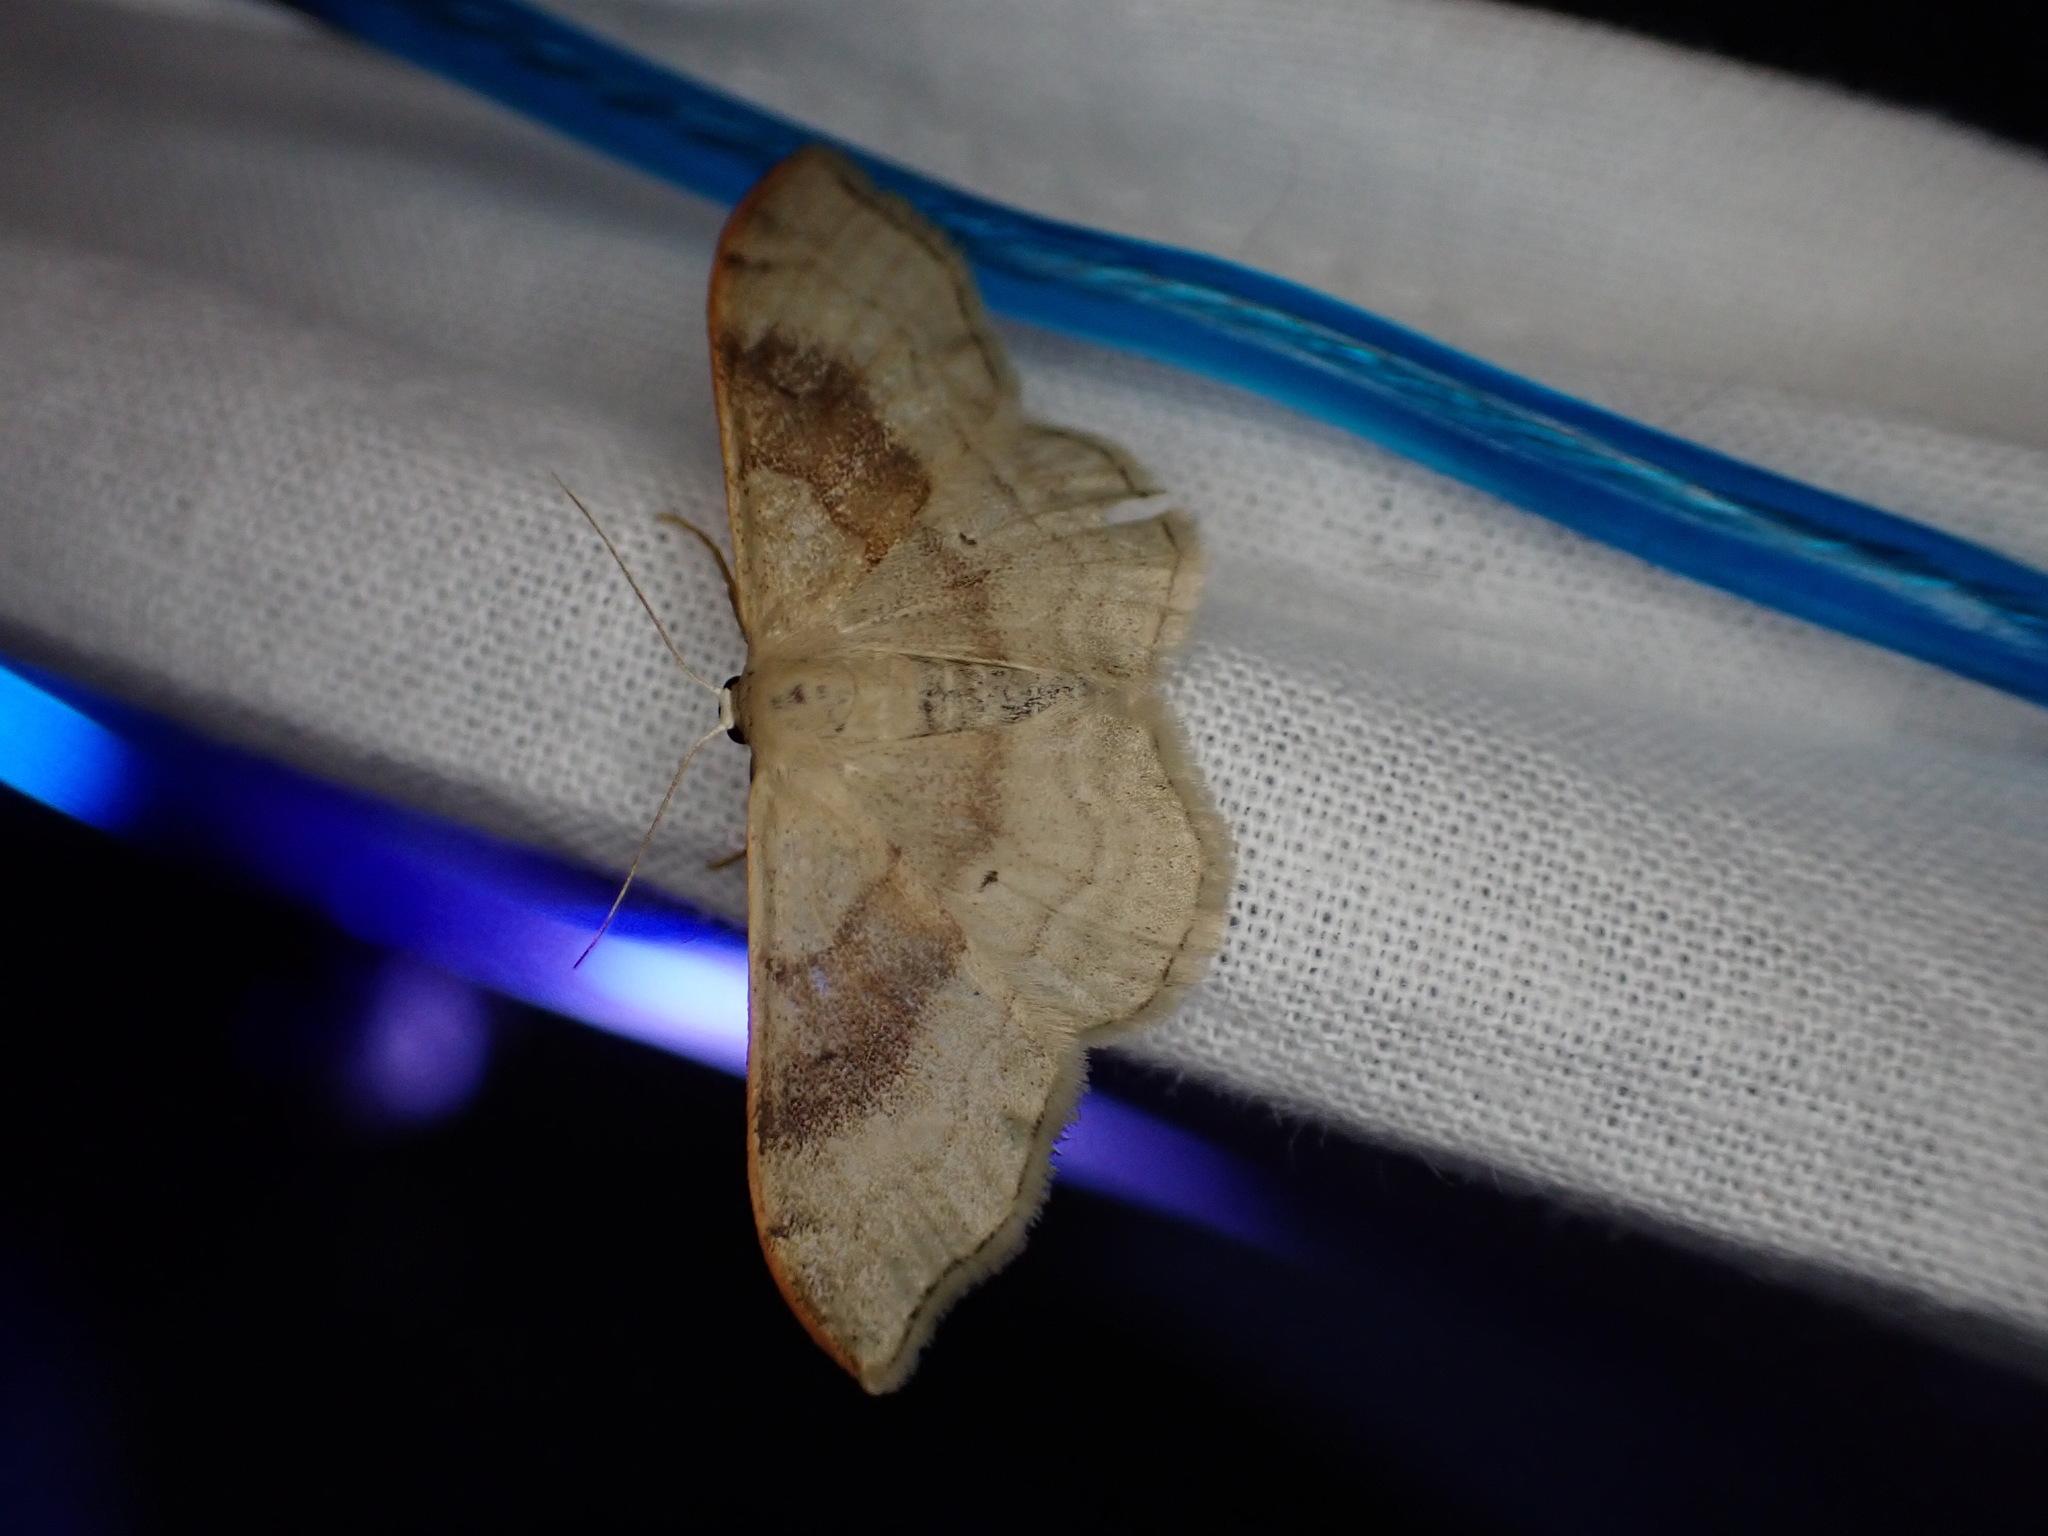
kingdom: Animalia
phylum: Arthropoda
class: Insecta
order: Lepidoptera
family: Geometridae
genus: Idaea
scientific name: Idaea degeneraria
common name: Portland ribbon wave
